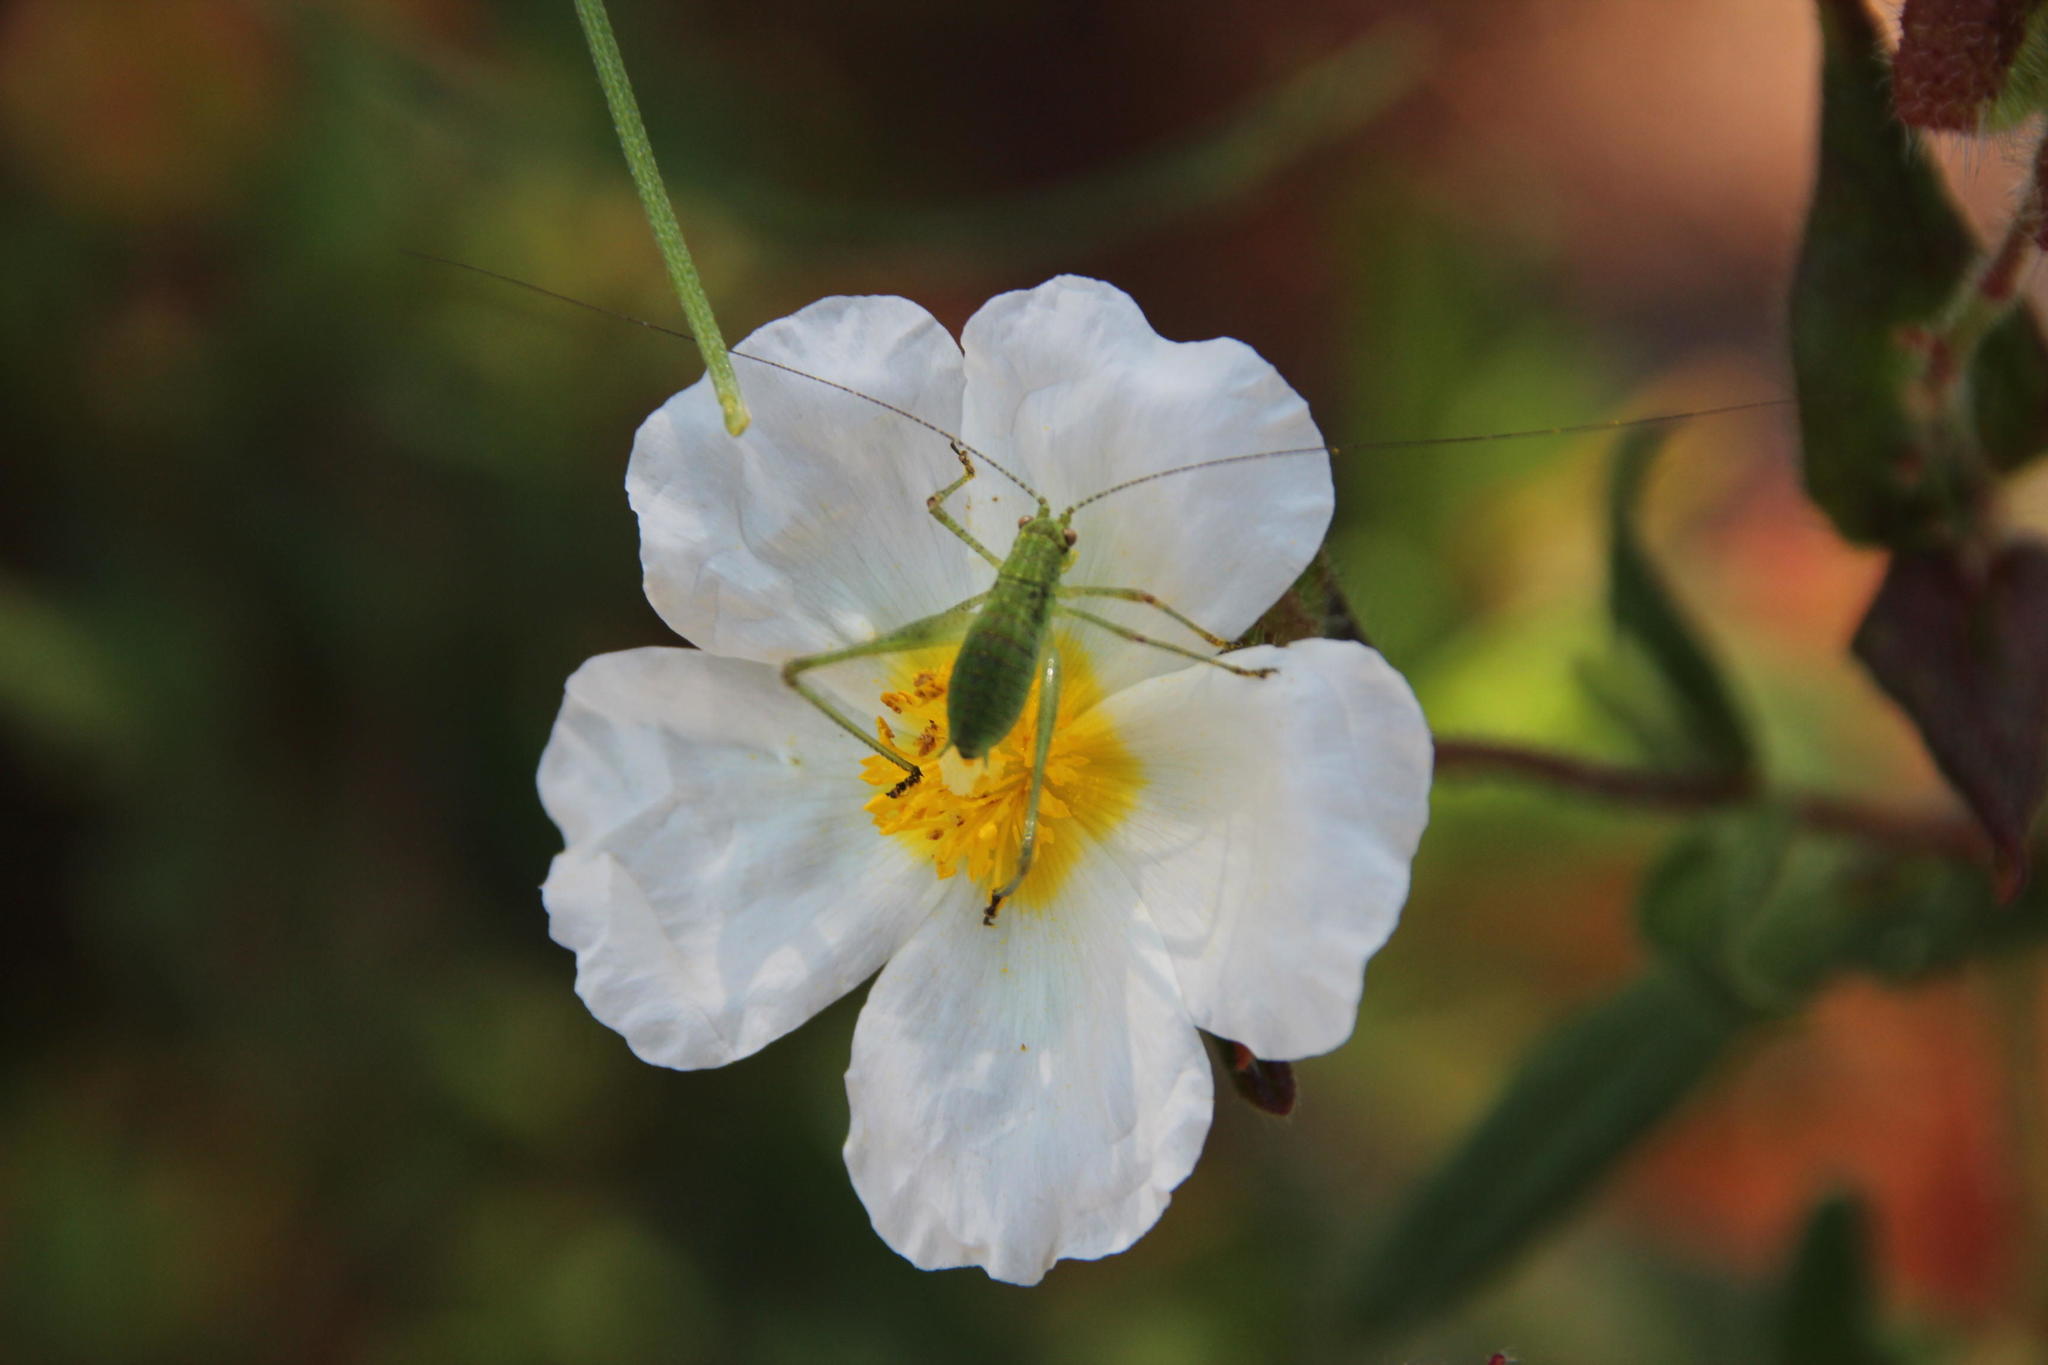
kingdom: Plantae
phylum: Tracheophyta
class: Magnoliopsida
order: Malvales
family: Cistaceae
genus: Cistus
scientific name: Cistus inflatus
